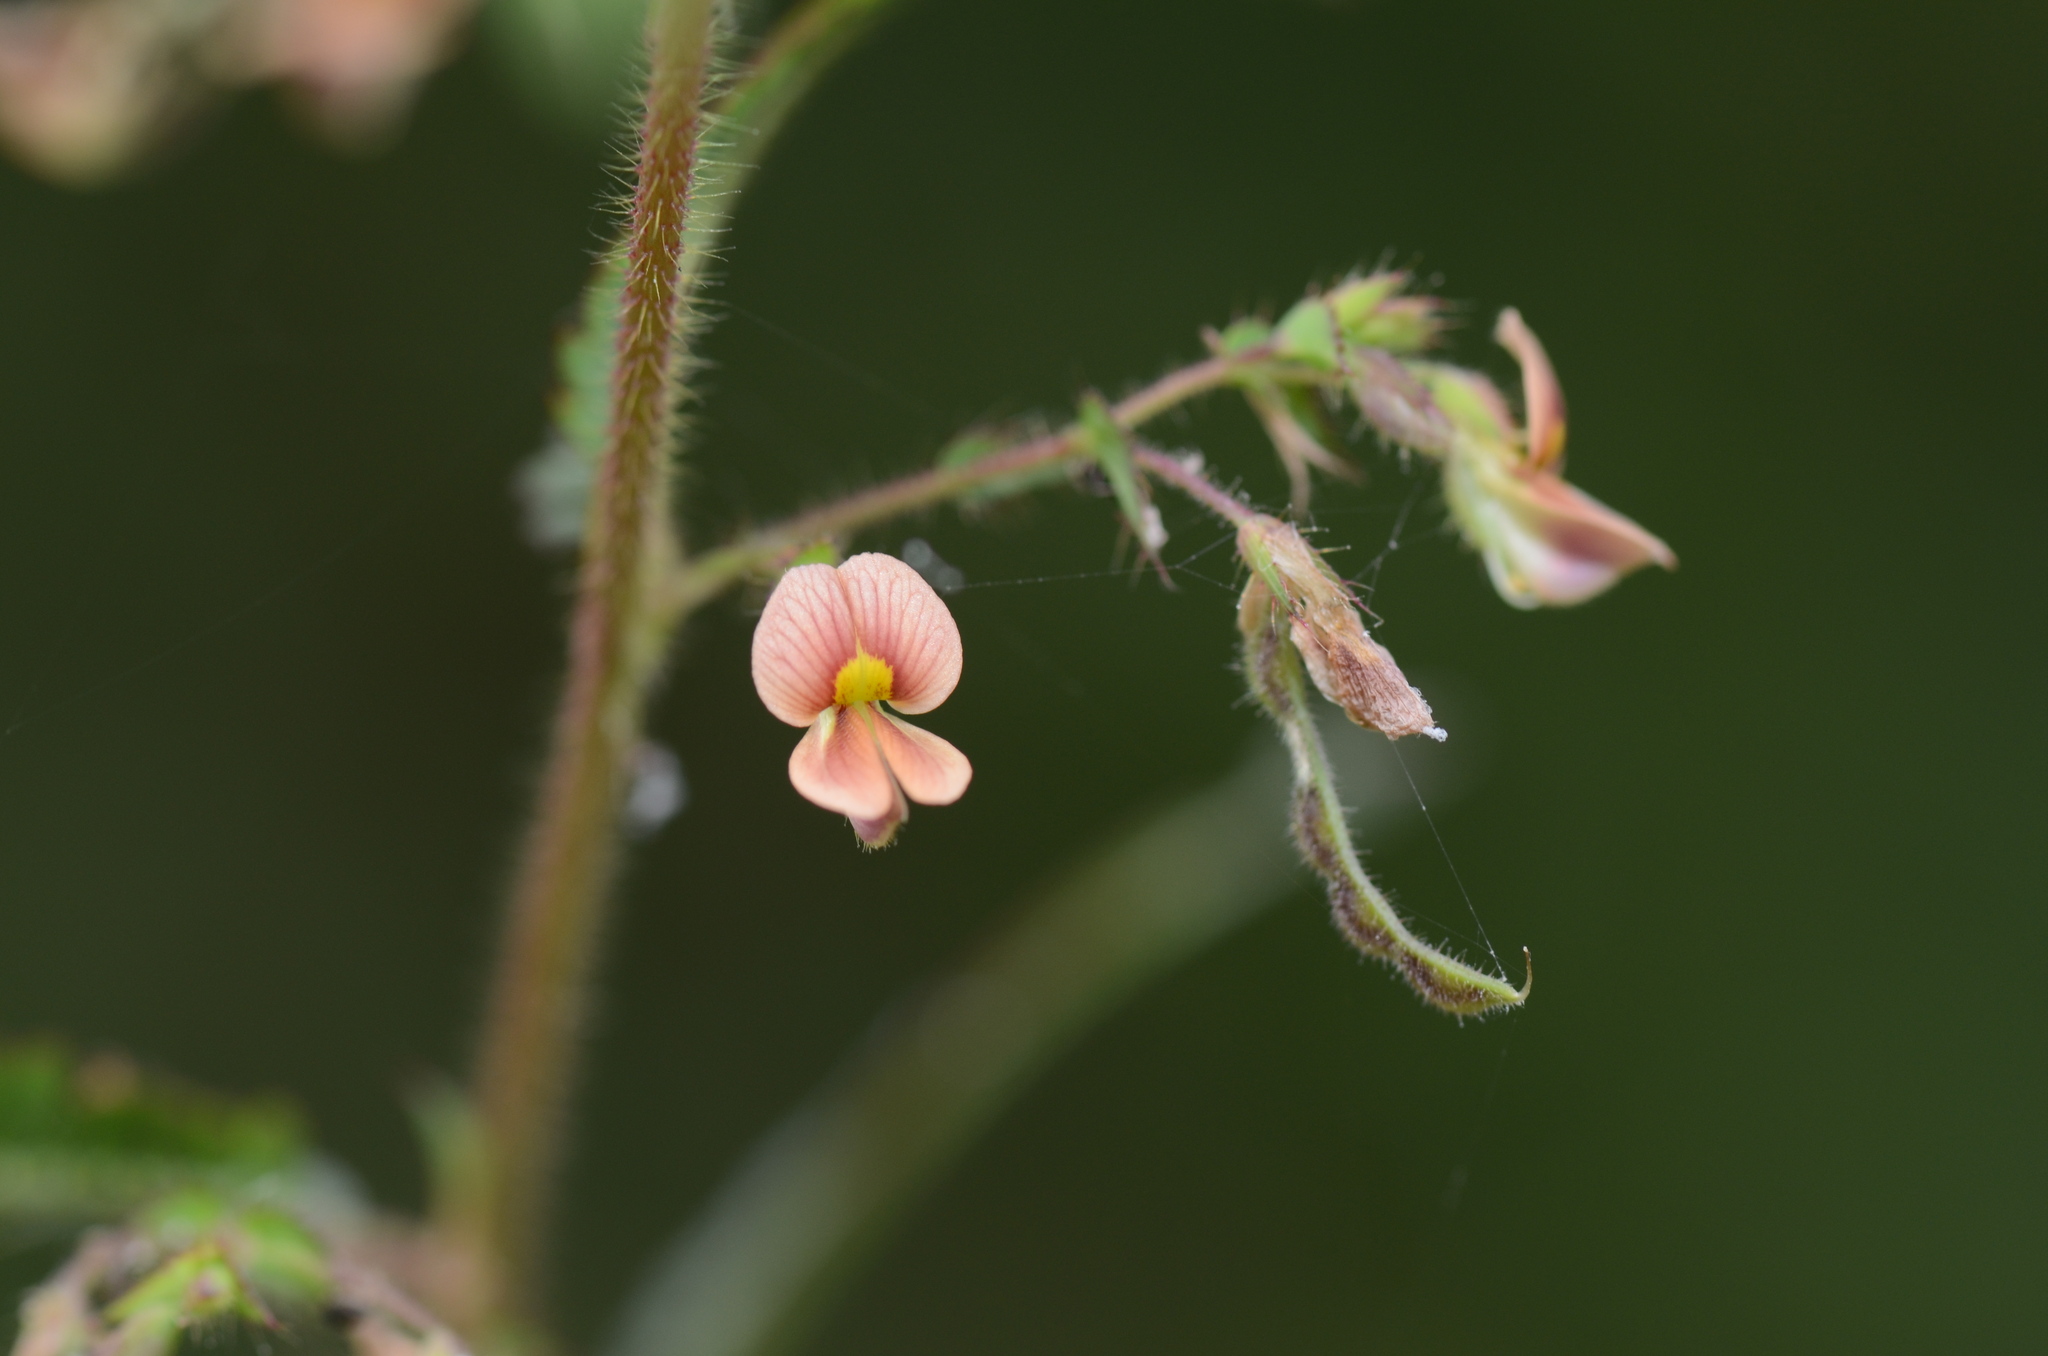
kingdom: Plantae
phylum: Tracheophyta
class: Magnoliopsida
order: Fabales
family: Fabaceae
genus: Aeschynomene
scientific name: Aeschynomene americana
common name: Joint-vetch
